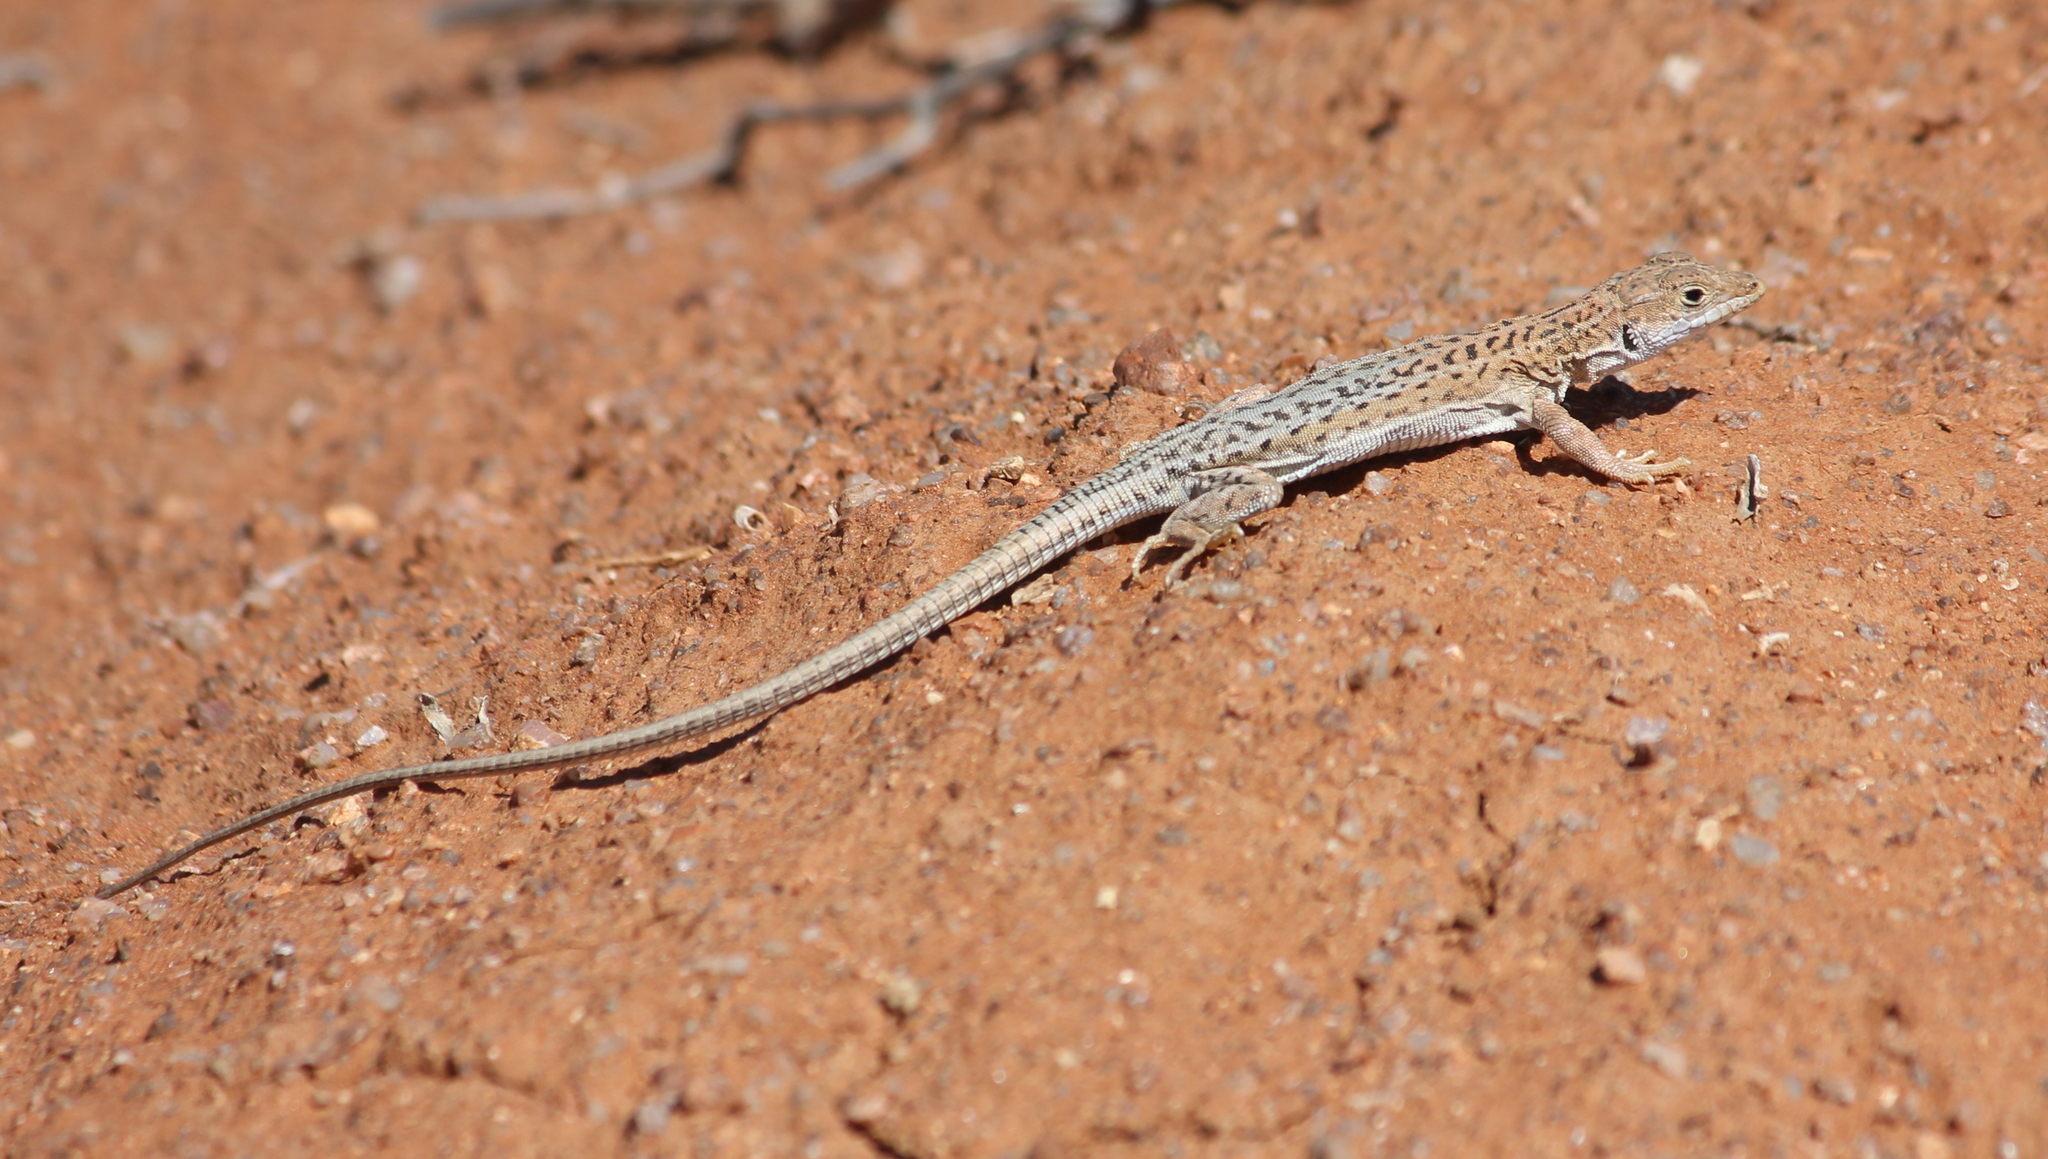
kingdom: Animalia
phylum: Chordata
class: Squamata
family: Lacertidae
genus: Meroles
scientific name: Meroles suborbitalis
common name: Spotted sand lizard
